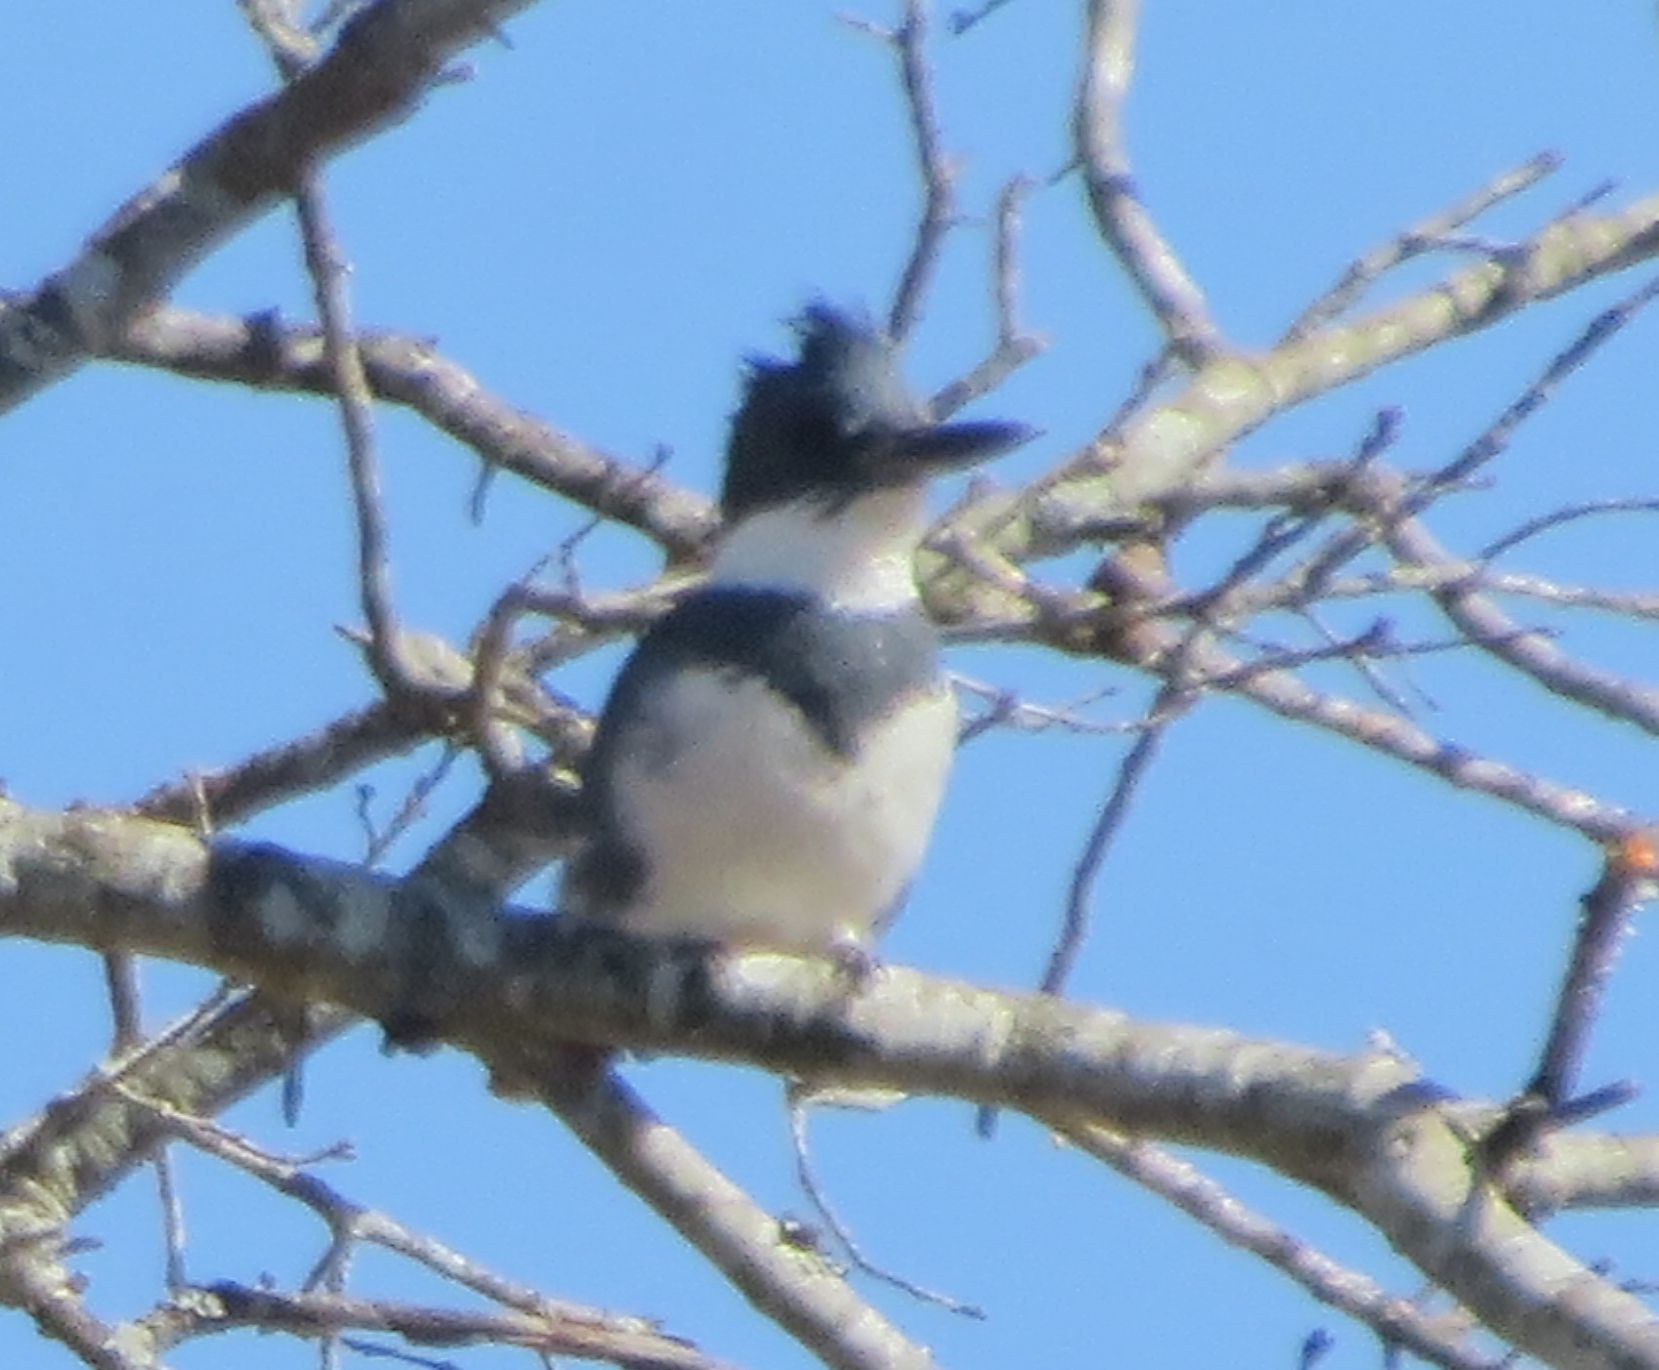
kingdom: Animalia
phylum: Chordata
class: Aves
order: Coraciiformes
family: Alcedinidae
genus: Megaceryle
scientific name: Megaceryle alcyon
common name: Belted kingfisher
